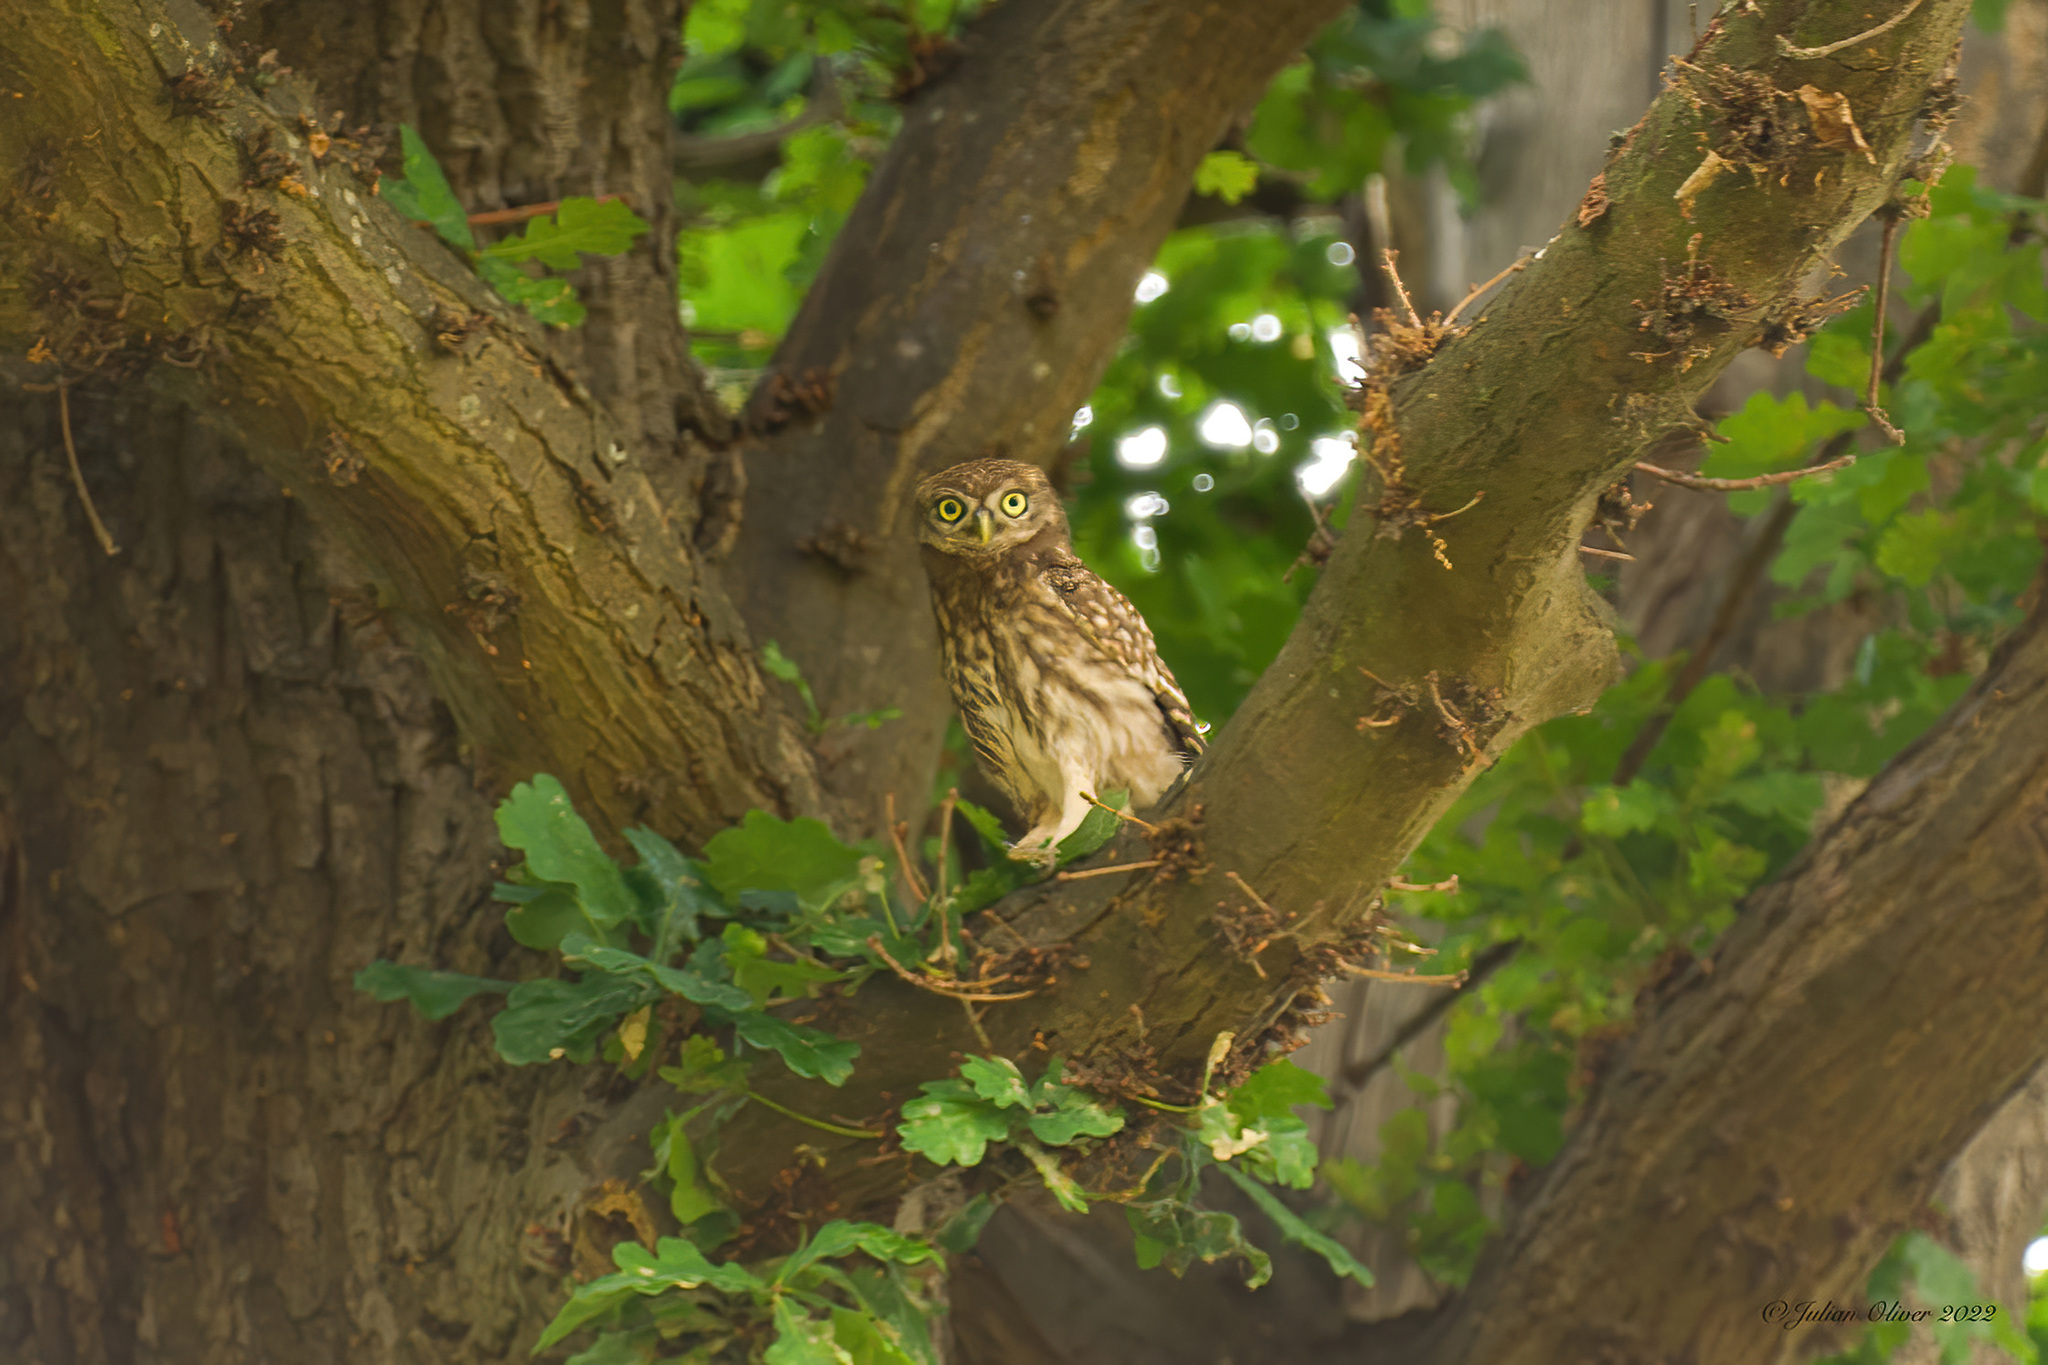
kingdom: Animalia
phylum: Chordata
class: Aves
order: Strigiformes
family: Strigidae
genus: Athene
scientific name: Athene noctua
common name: Little owl
